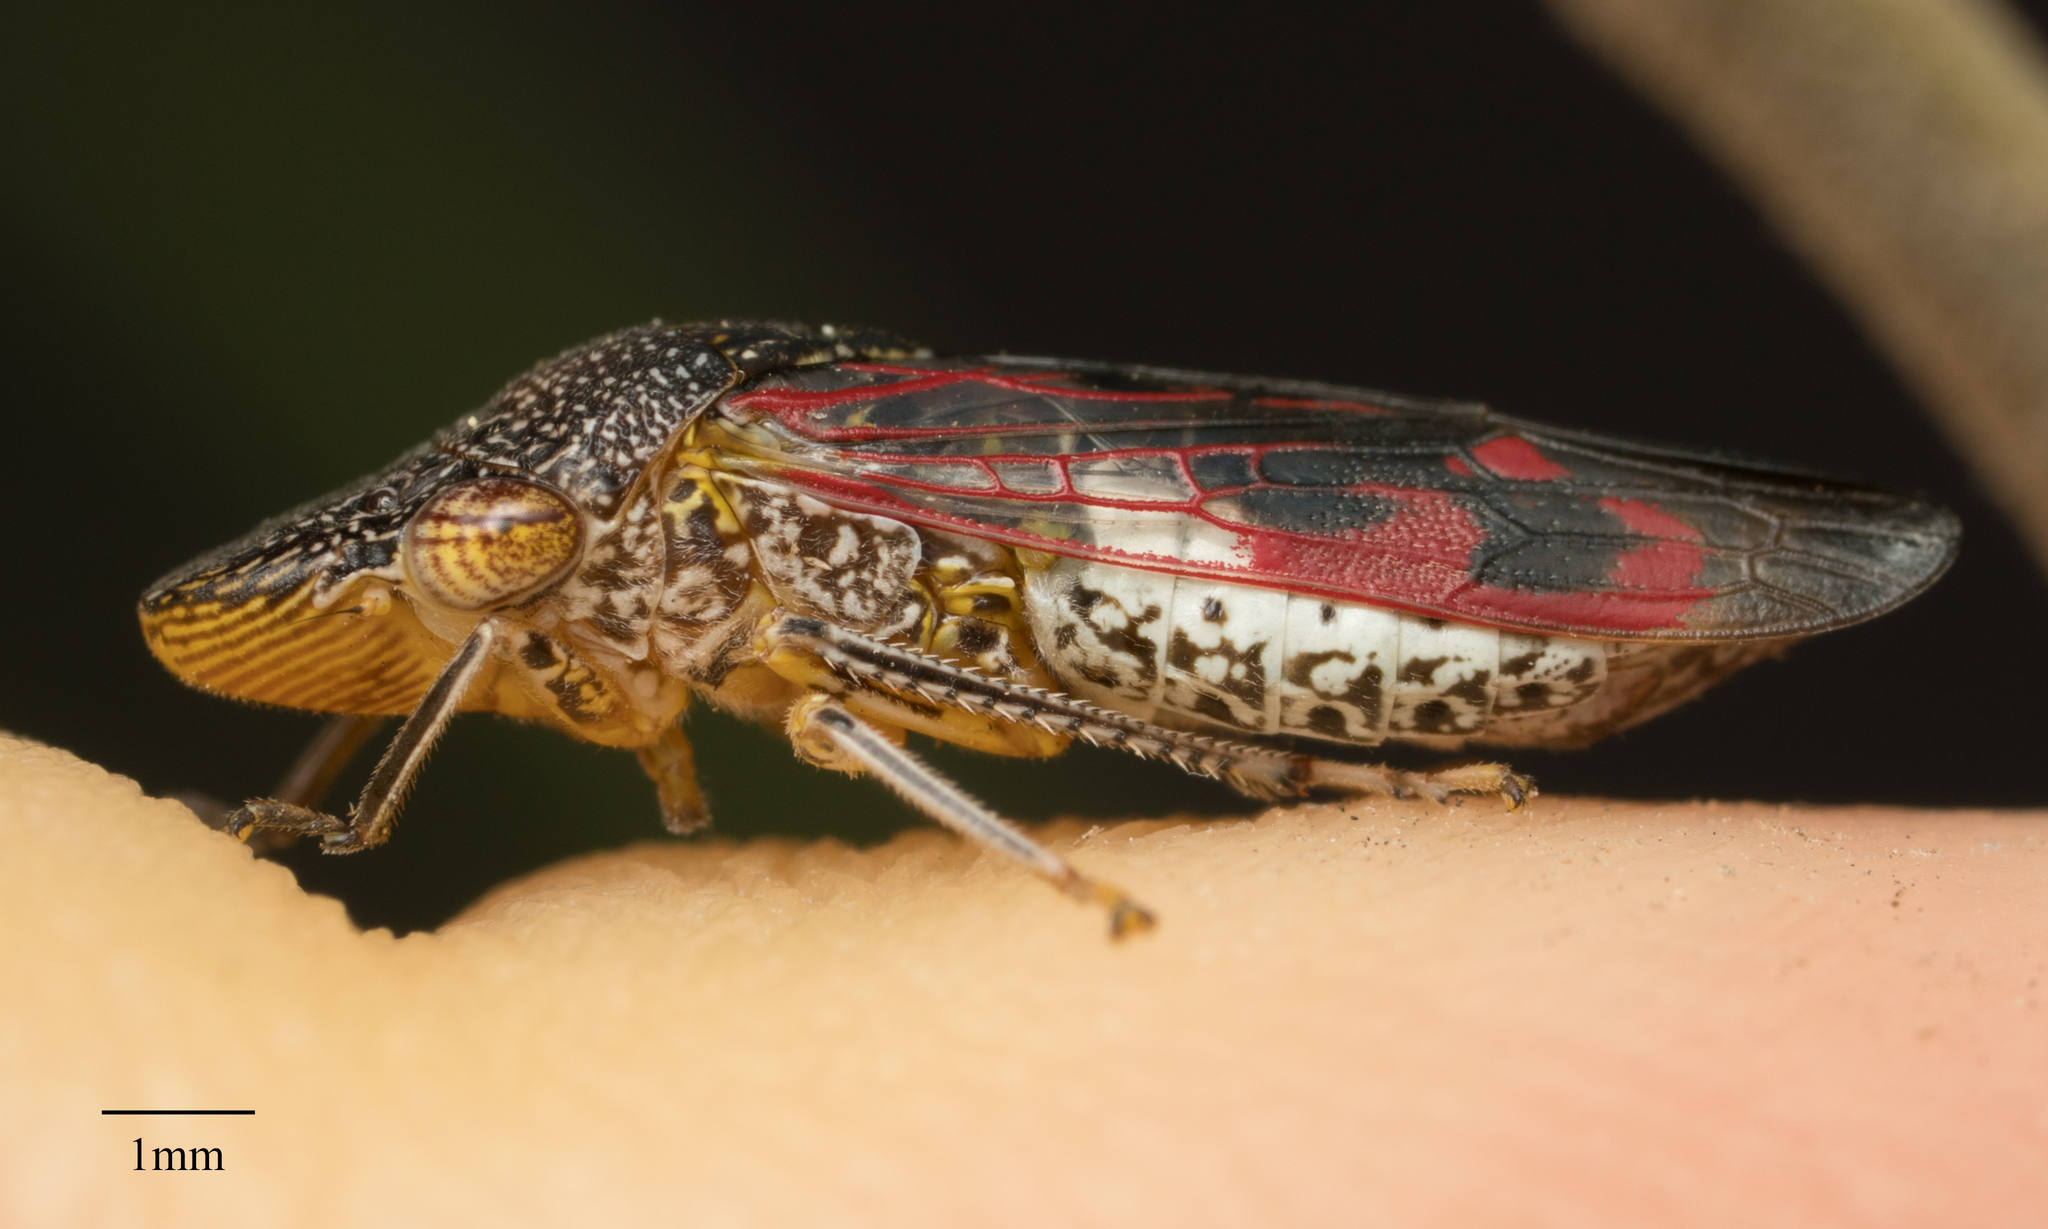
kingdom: Animalia
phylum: Arthropoda
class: Insecta
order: Hemiptera
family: Cicadellidae
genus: Homalodisca
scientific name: Homalodisca vitripennis
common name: Glassy-winged sharpshooter
